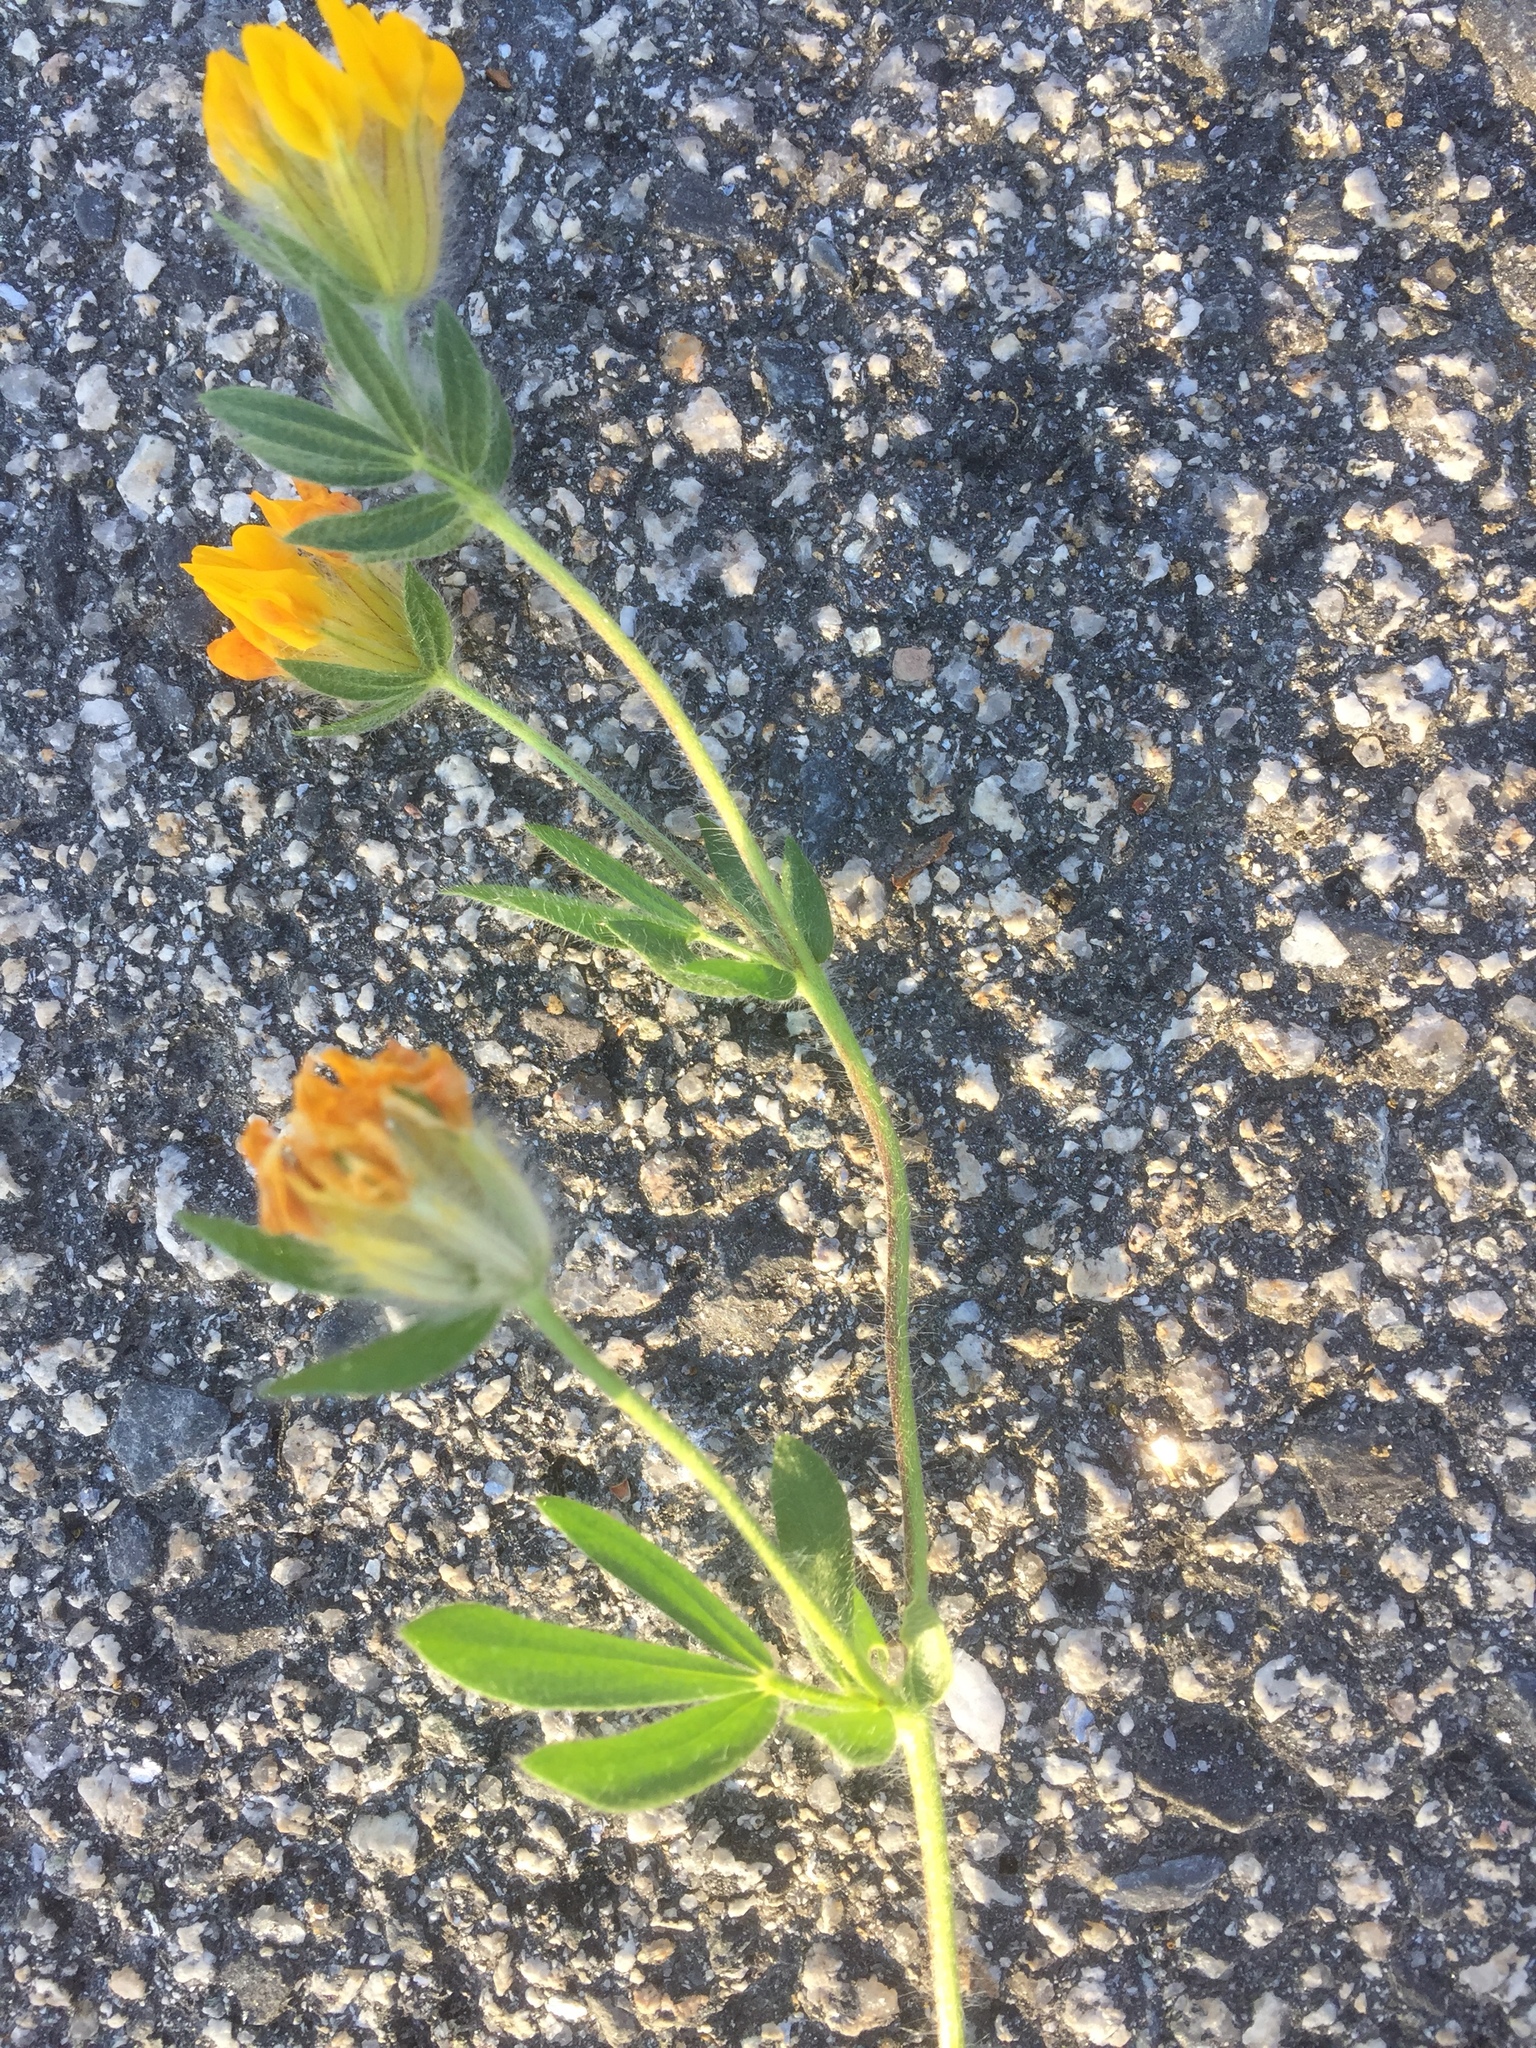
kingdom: Plantae
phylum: Tracheophyta
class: Magnoliopsida
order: Fabales
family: Fabaceae
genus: Anthyllis
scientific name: Anthyllis lotoides
